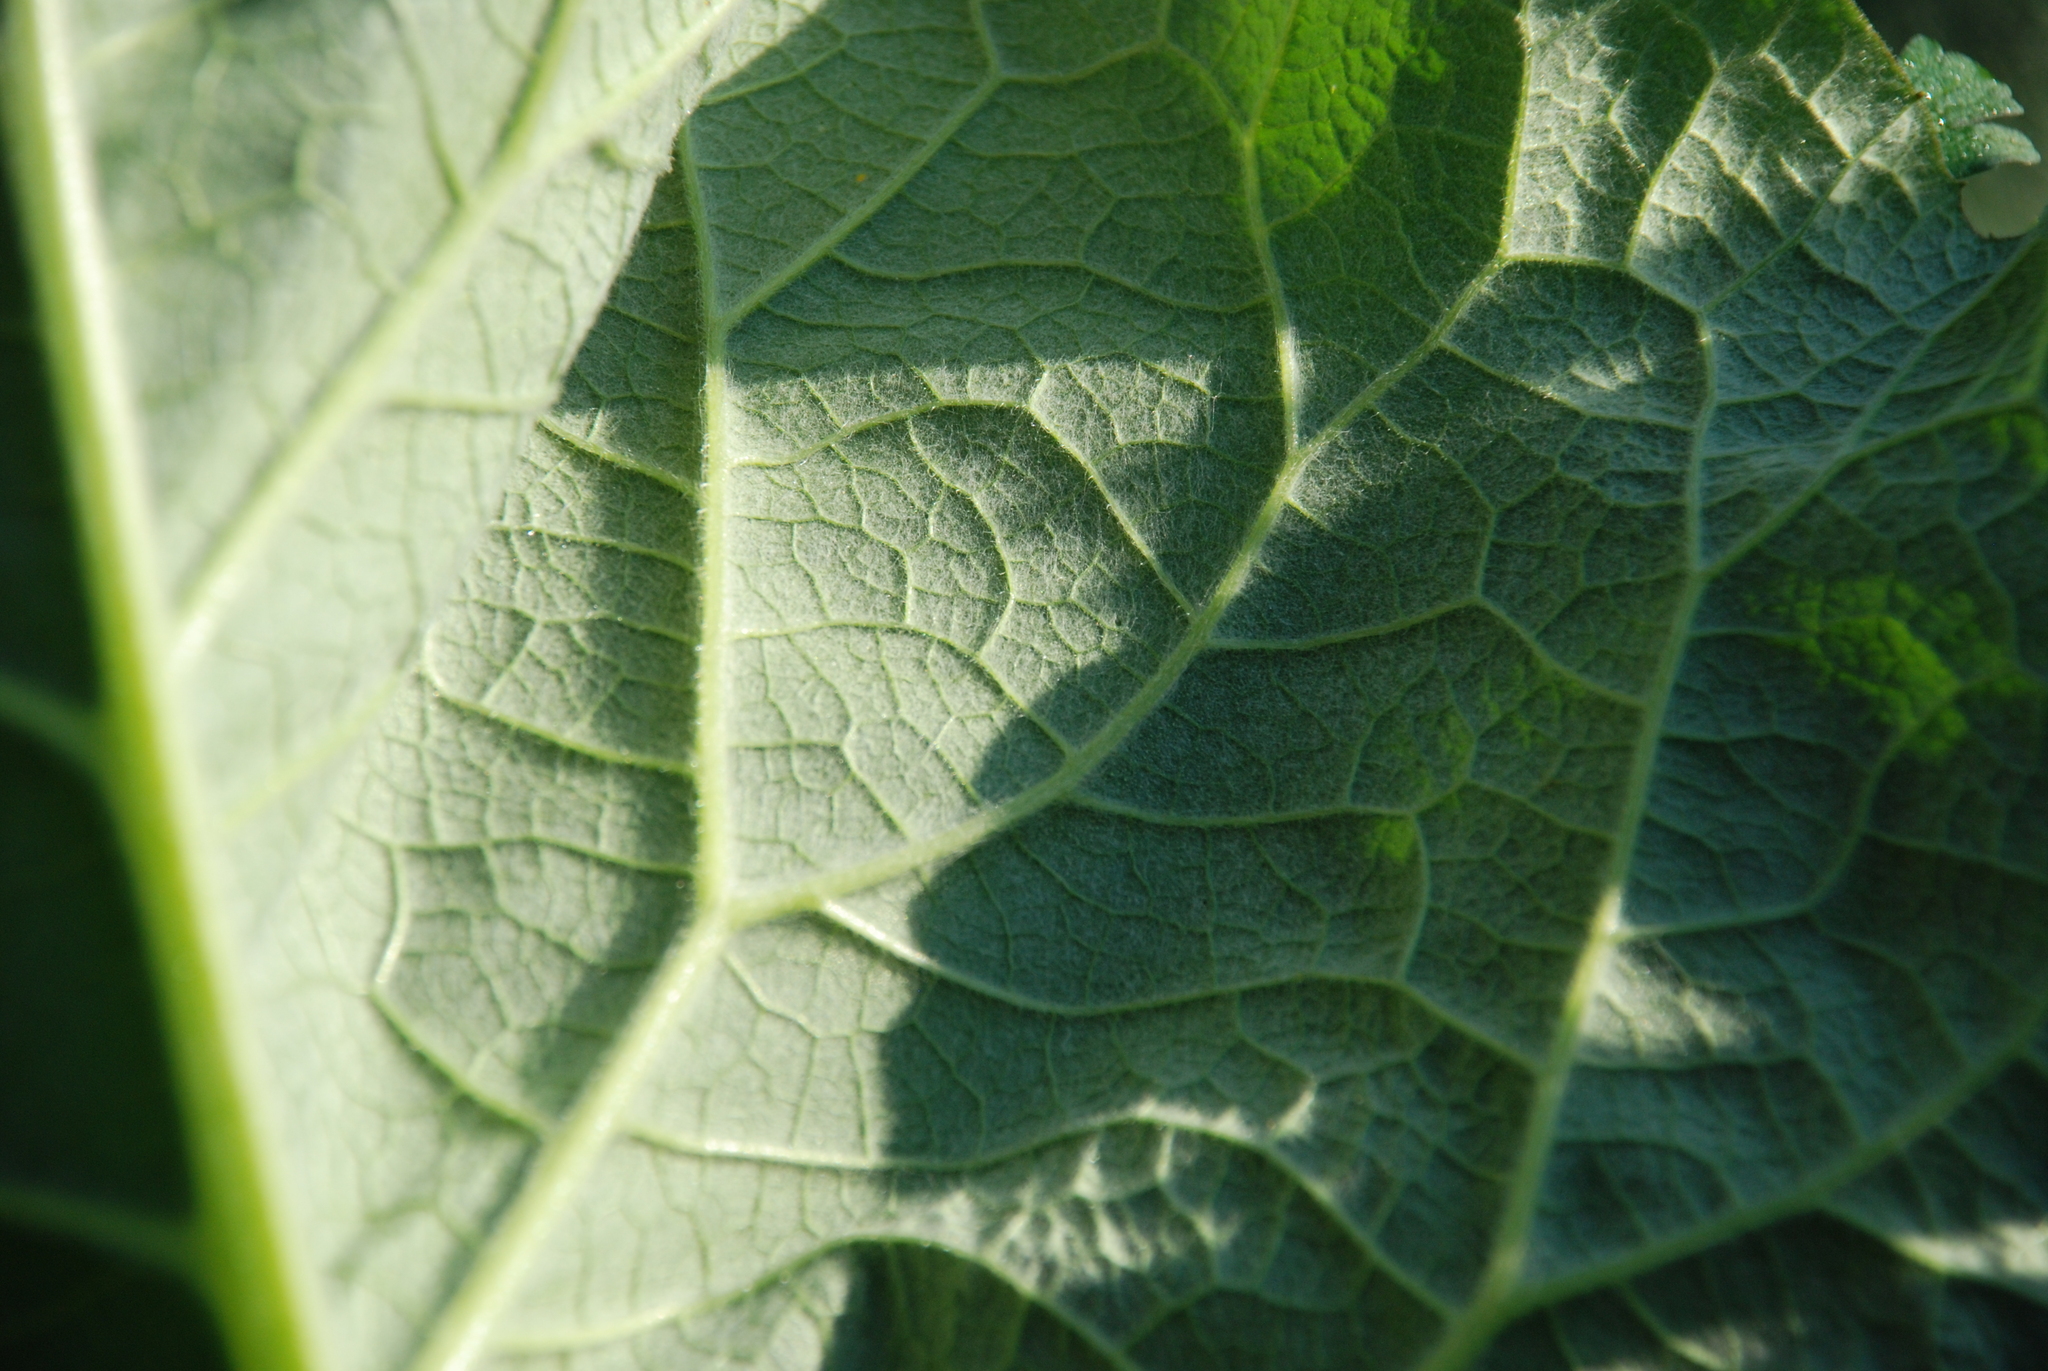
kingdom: Plantae
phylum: Tracheophyta
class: Magnoliopsida
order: Asterales
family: Asteraceae
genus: Arctium
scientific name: Arctium
